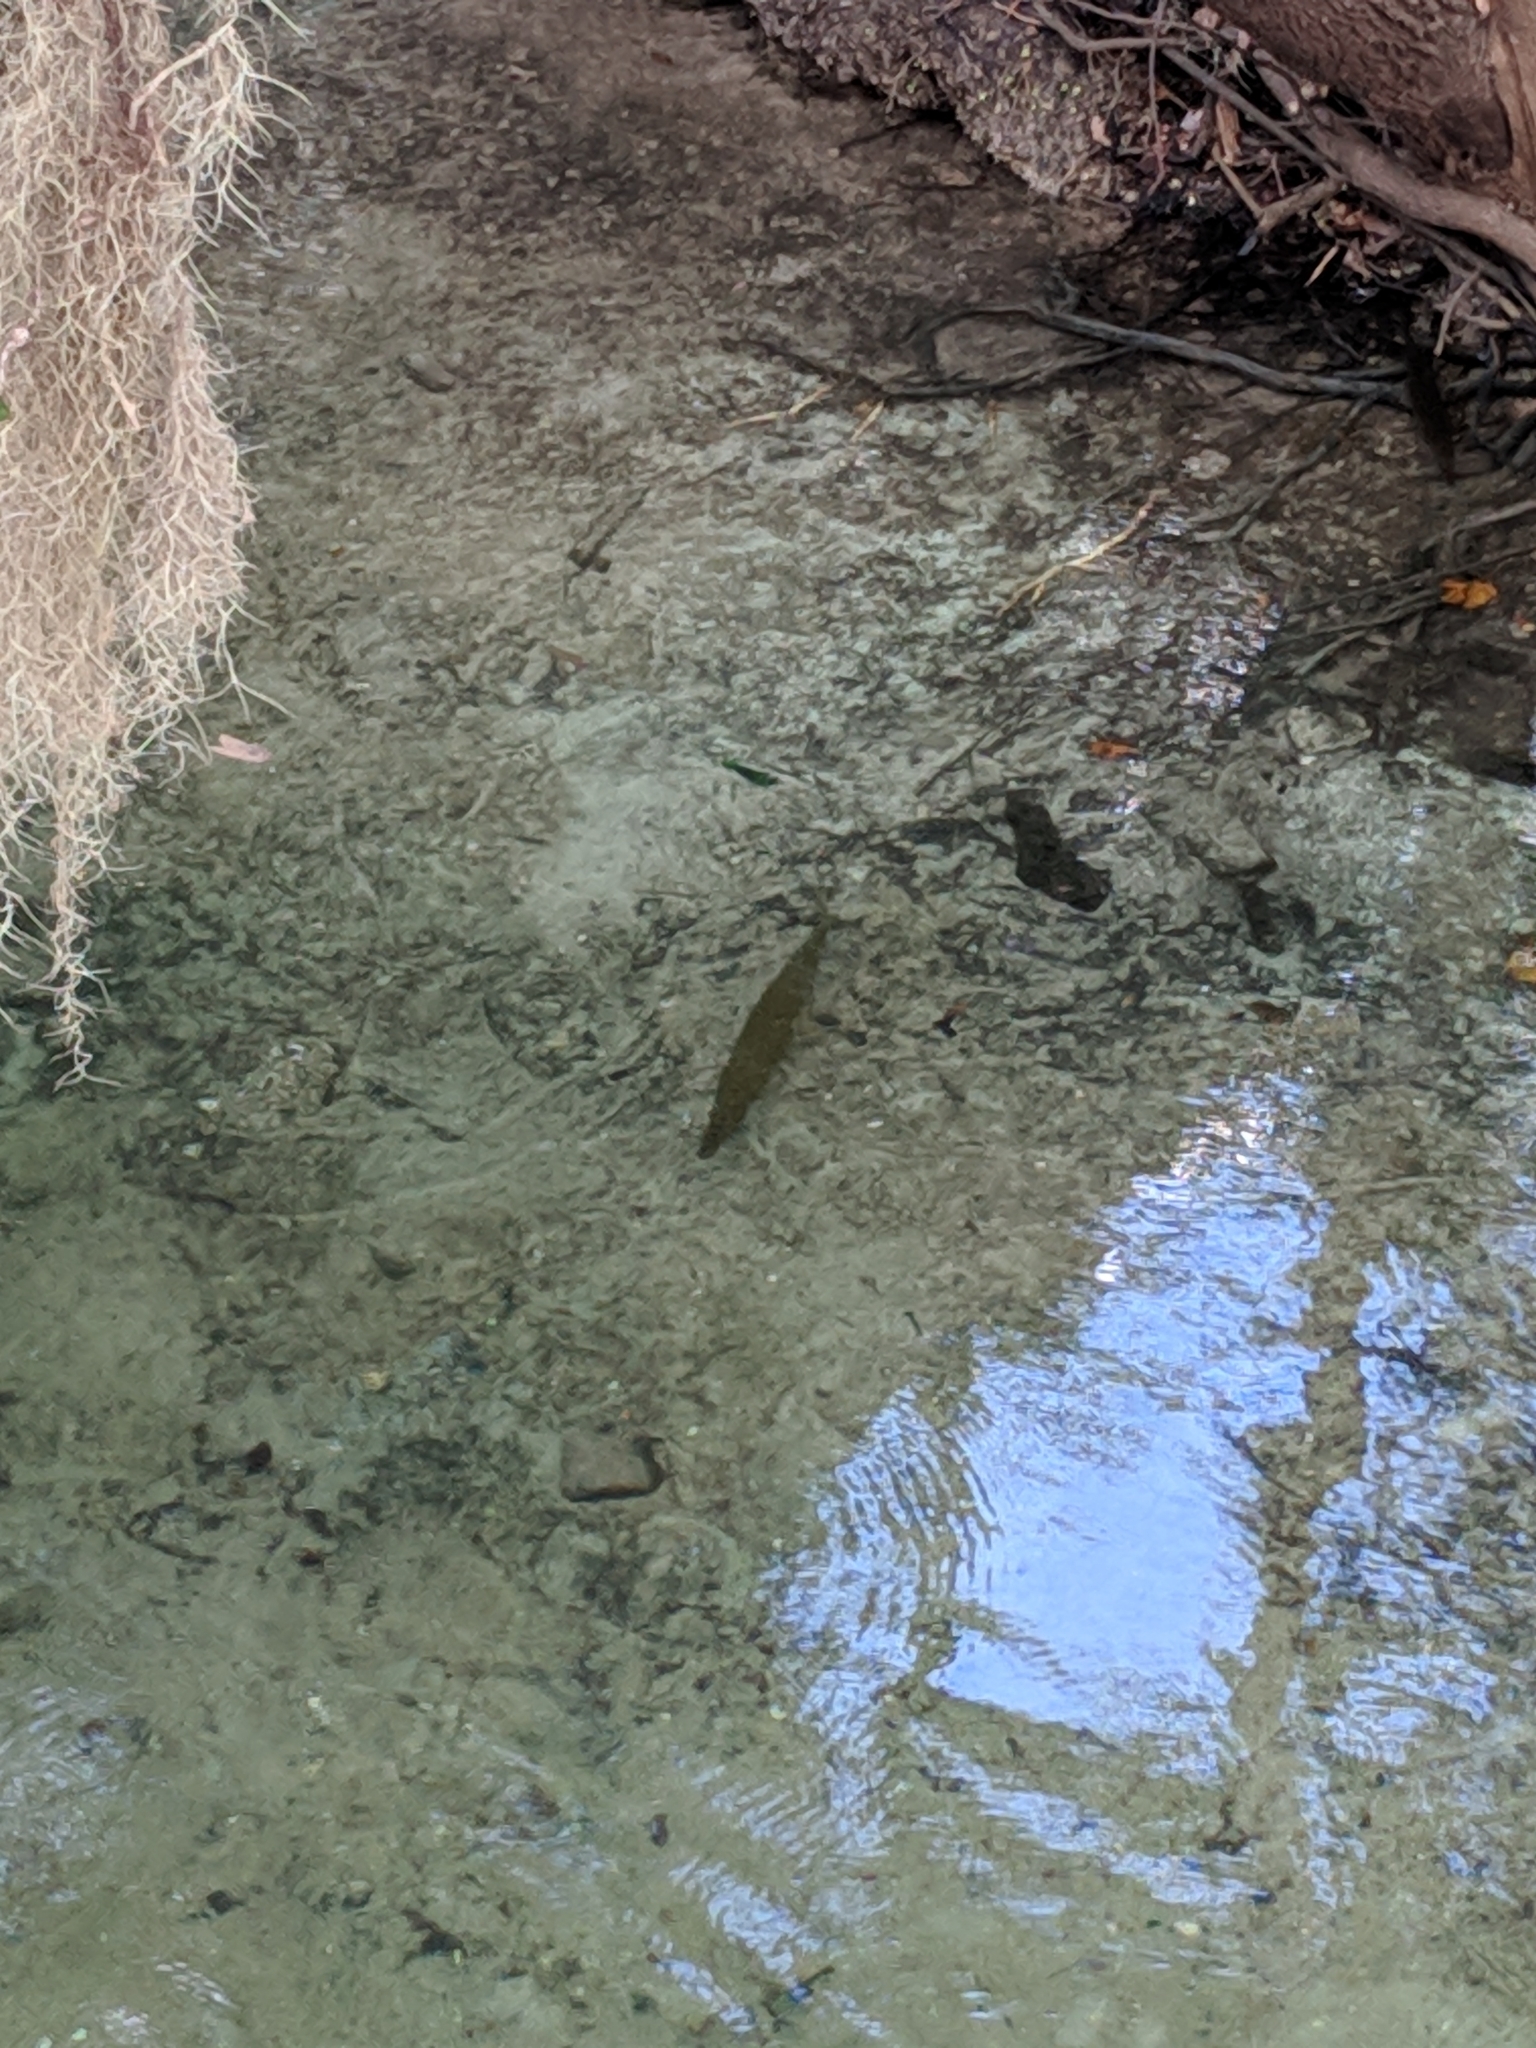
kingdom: Animalia
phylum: Chordata
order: Lepisosteiformes
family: Lepisosteidae
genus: Lepisosteus
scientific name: Lepisosteus platyrhincus
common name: Florida gar
